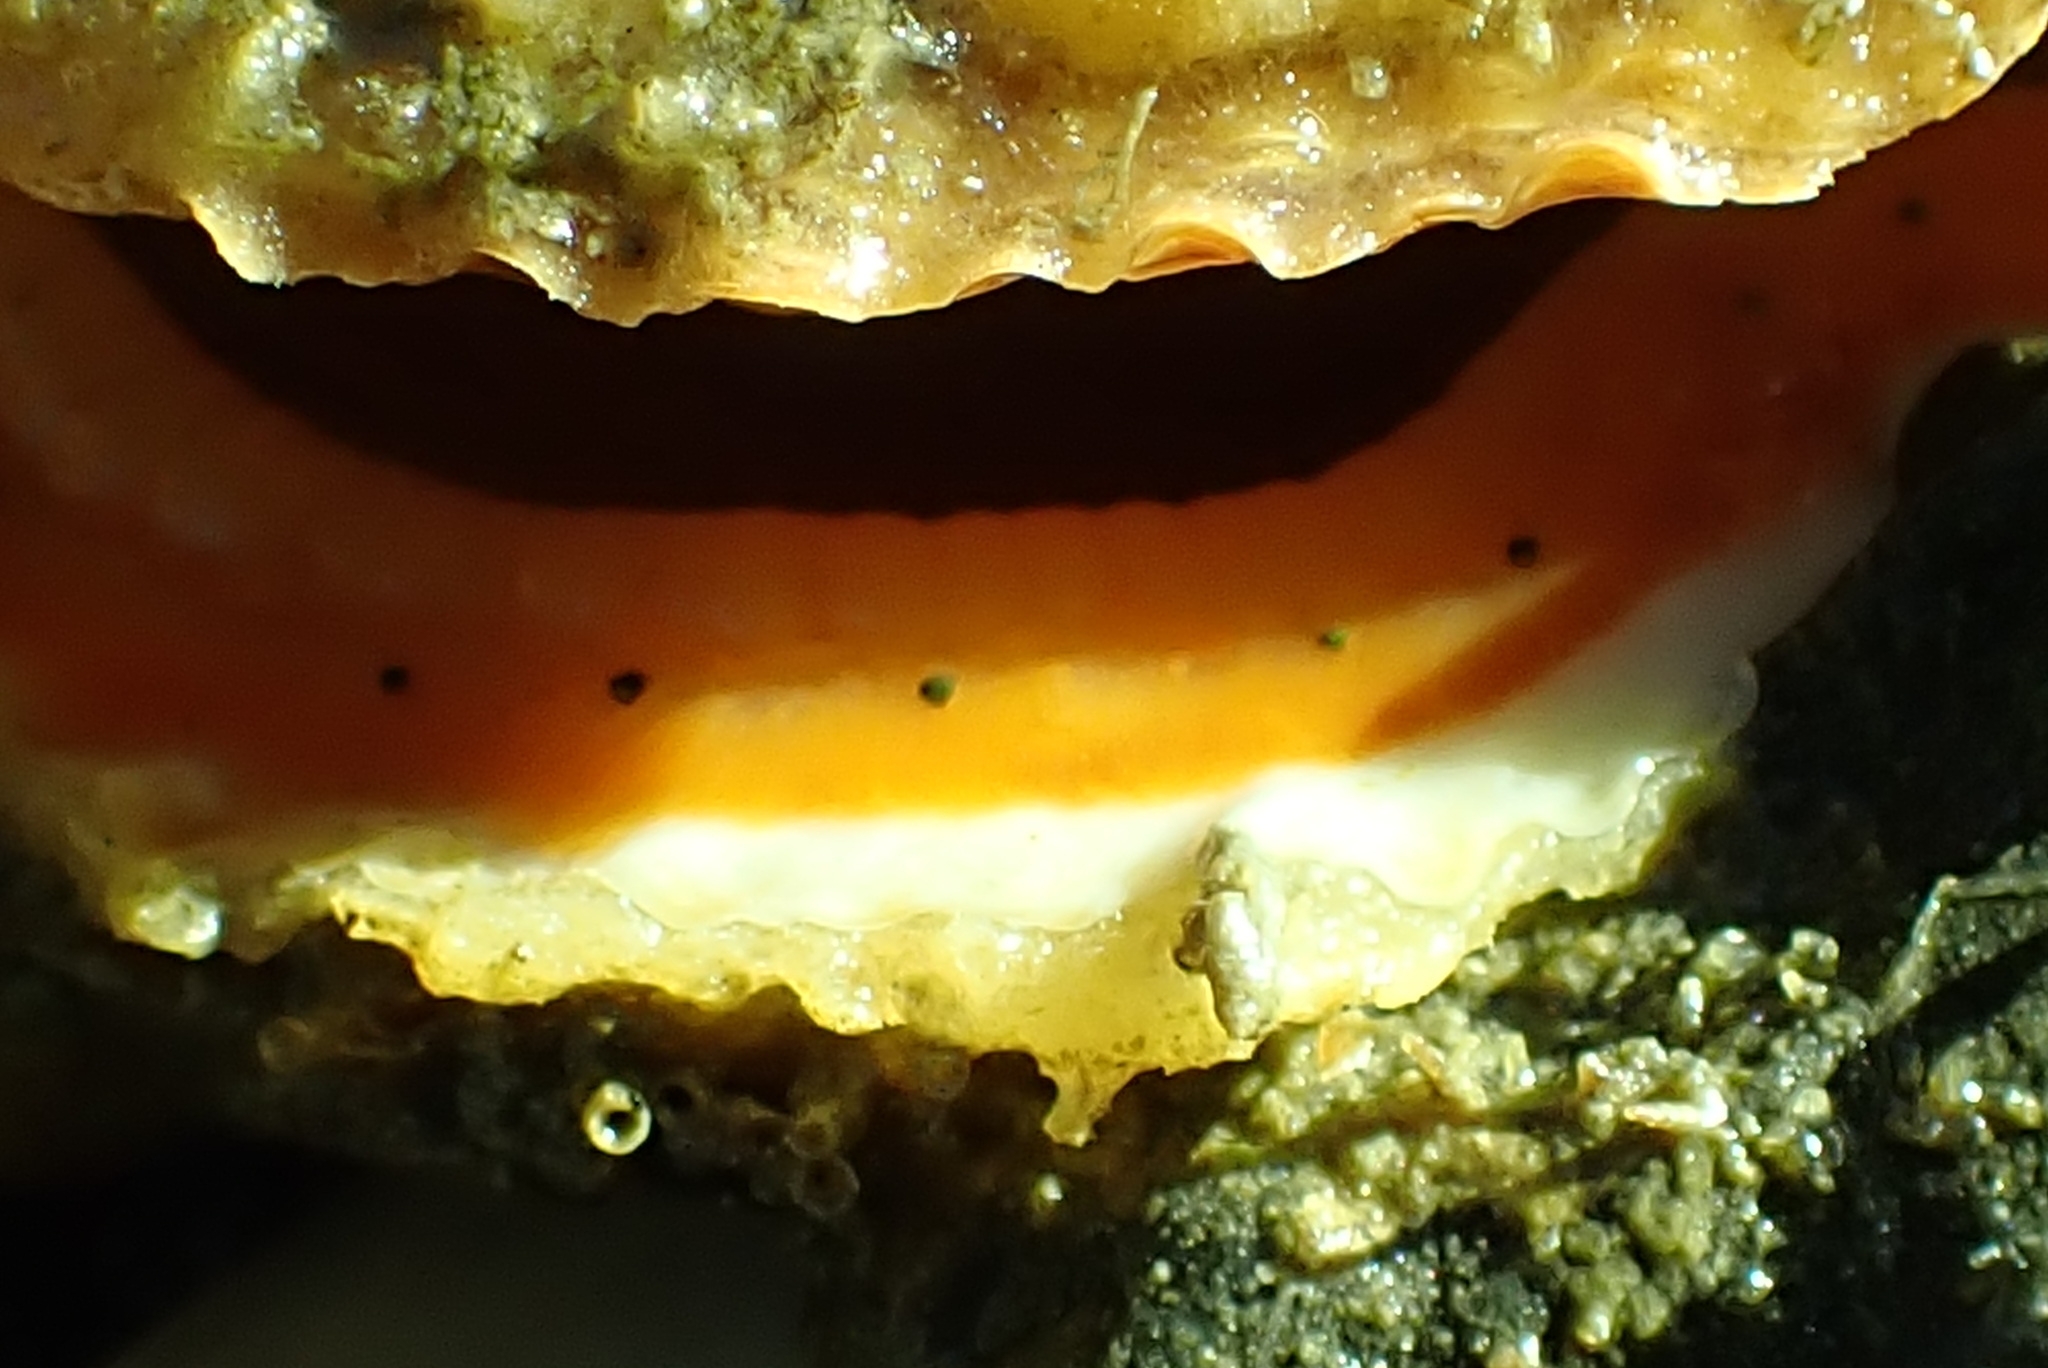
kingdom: Animalia
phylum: Mollusca
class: Bivalvia
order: Pectinida
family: Pectinidae
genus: Crassadoma
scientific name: Crassadoma gigantea
